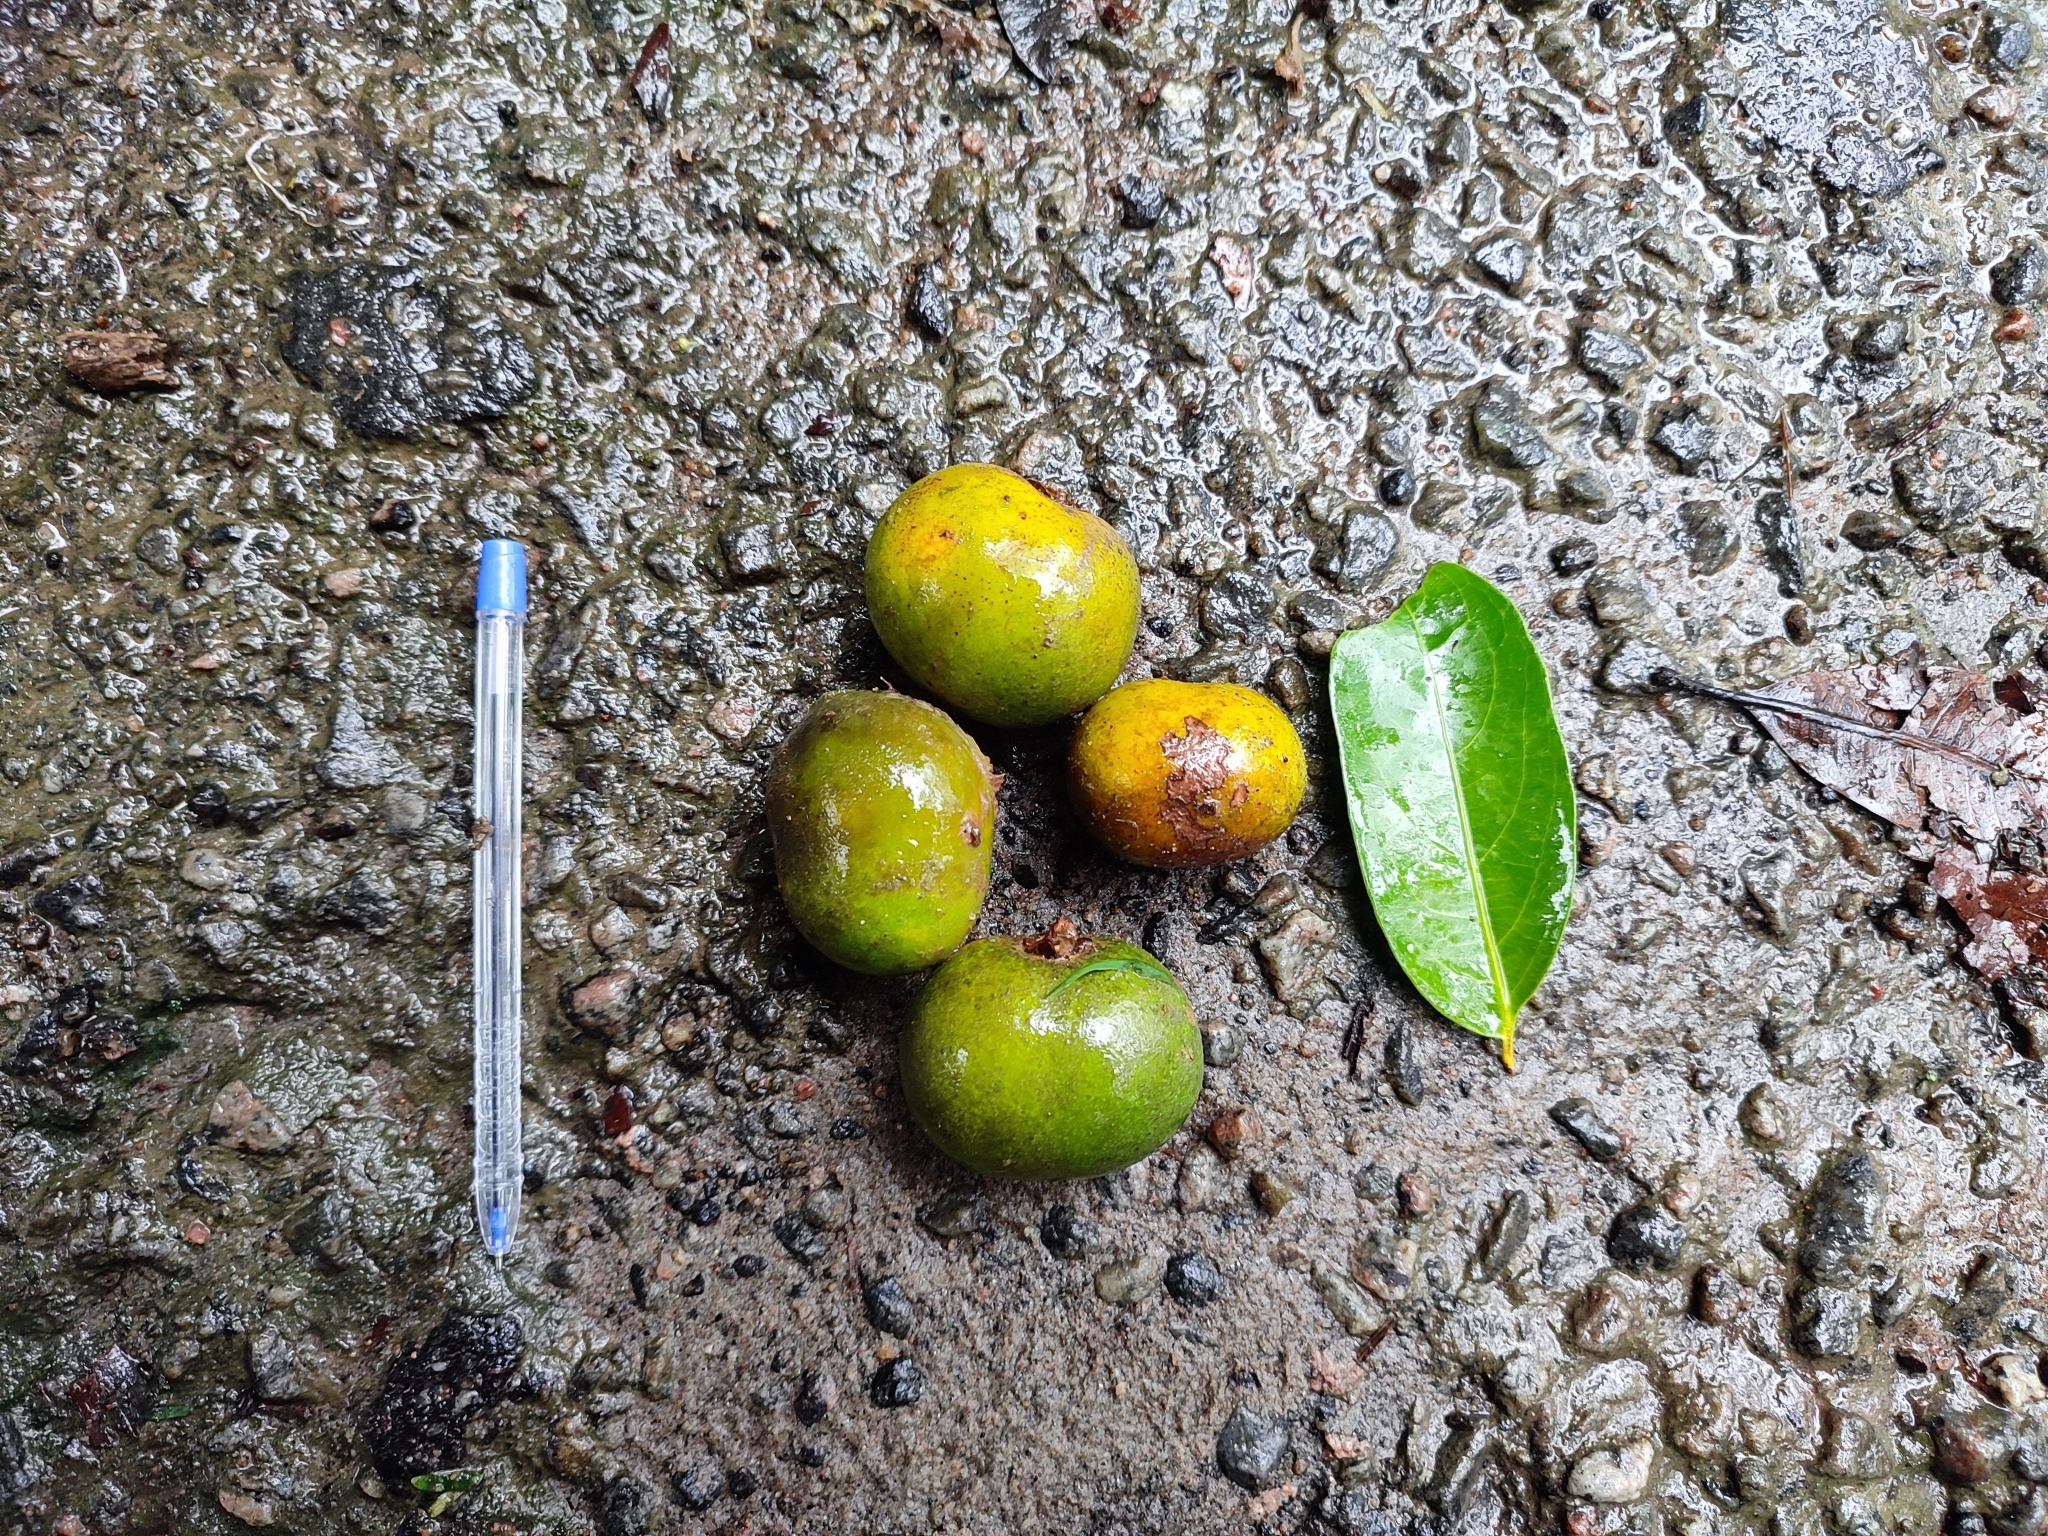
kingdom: Plantae
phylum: Tracheophyta
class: Magnoliopsida
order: Malpighiales
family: Putranjivaceae
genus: Drypetes
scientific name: Drypetes confertiflora
